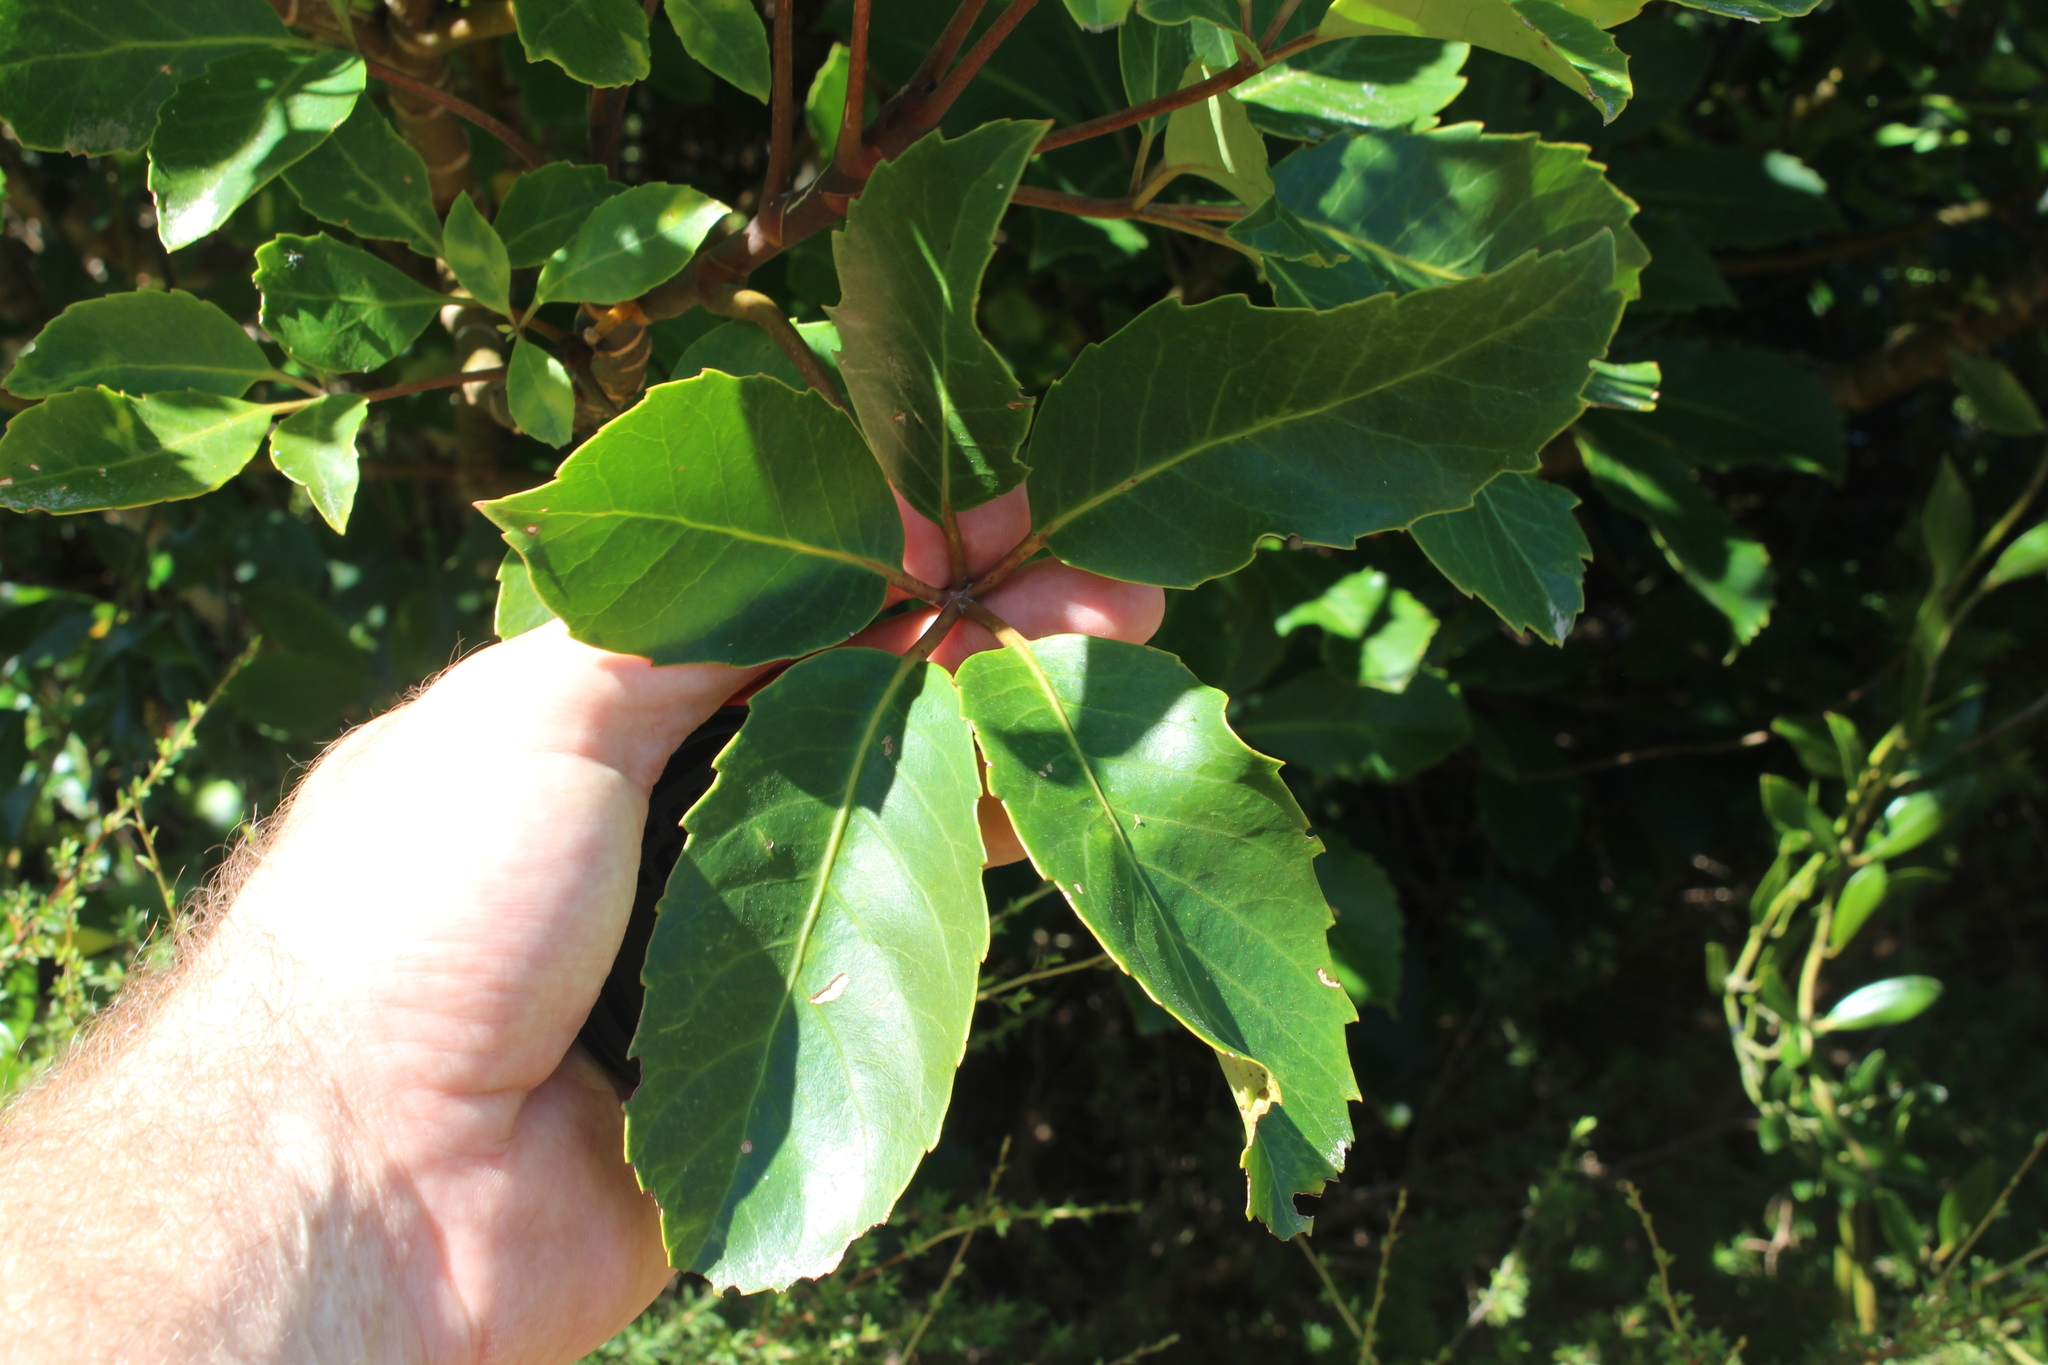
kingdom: Plantae
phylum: Tracheophyta
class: Magnoliopsida
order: Apiales
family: Araliaceae
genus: Neopanax
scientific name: Neopanax arboreus
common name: Five-fingers
